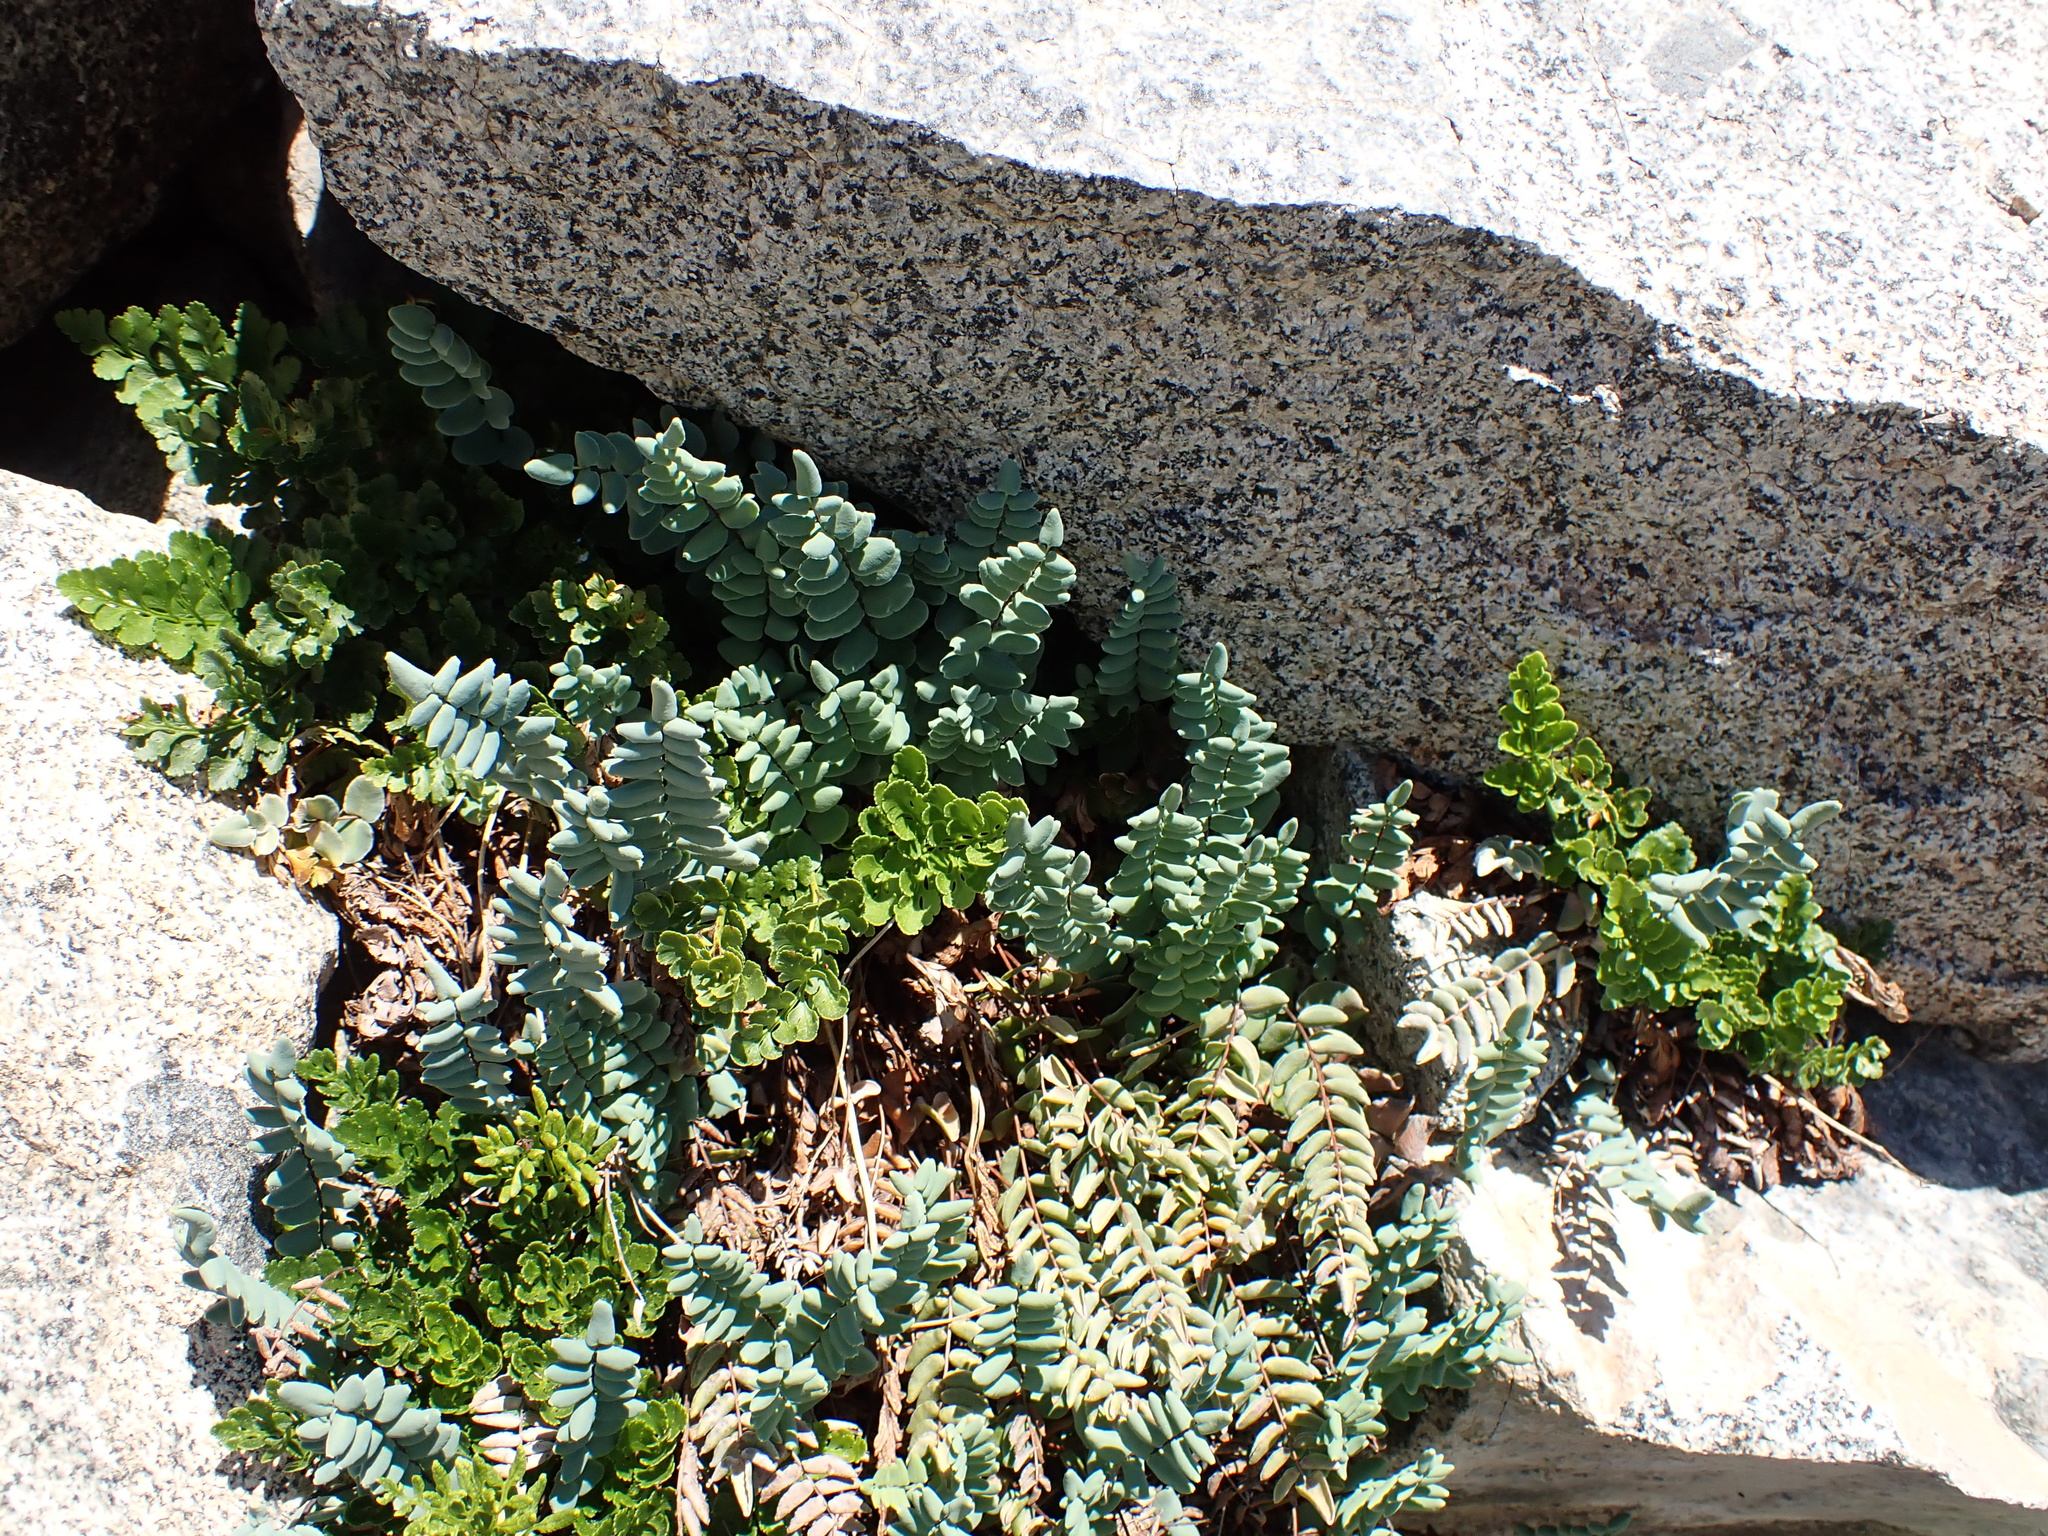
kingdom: Plantae
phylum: Tracheophyta
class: Polypodiopsida
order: Polypodiales
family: Pteridaceae
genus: Pellaea
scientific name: Pellaea bridgesii
